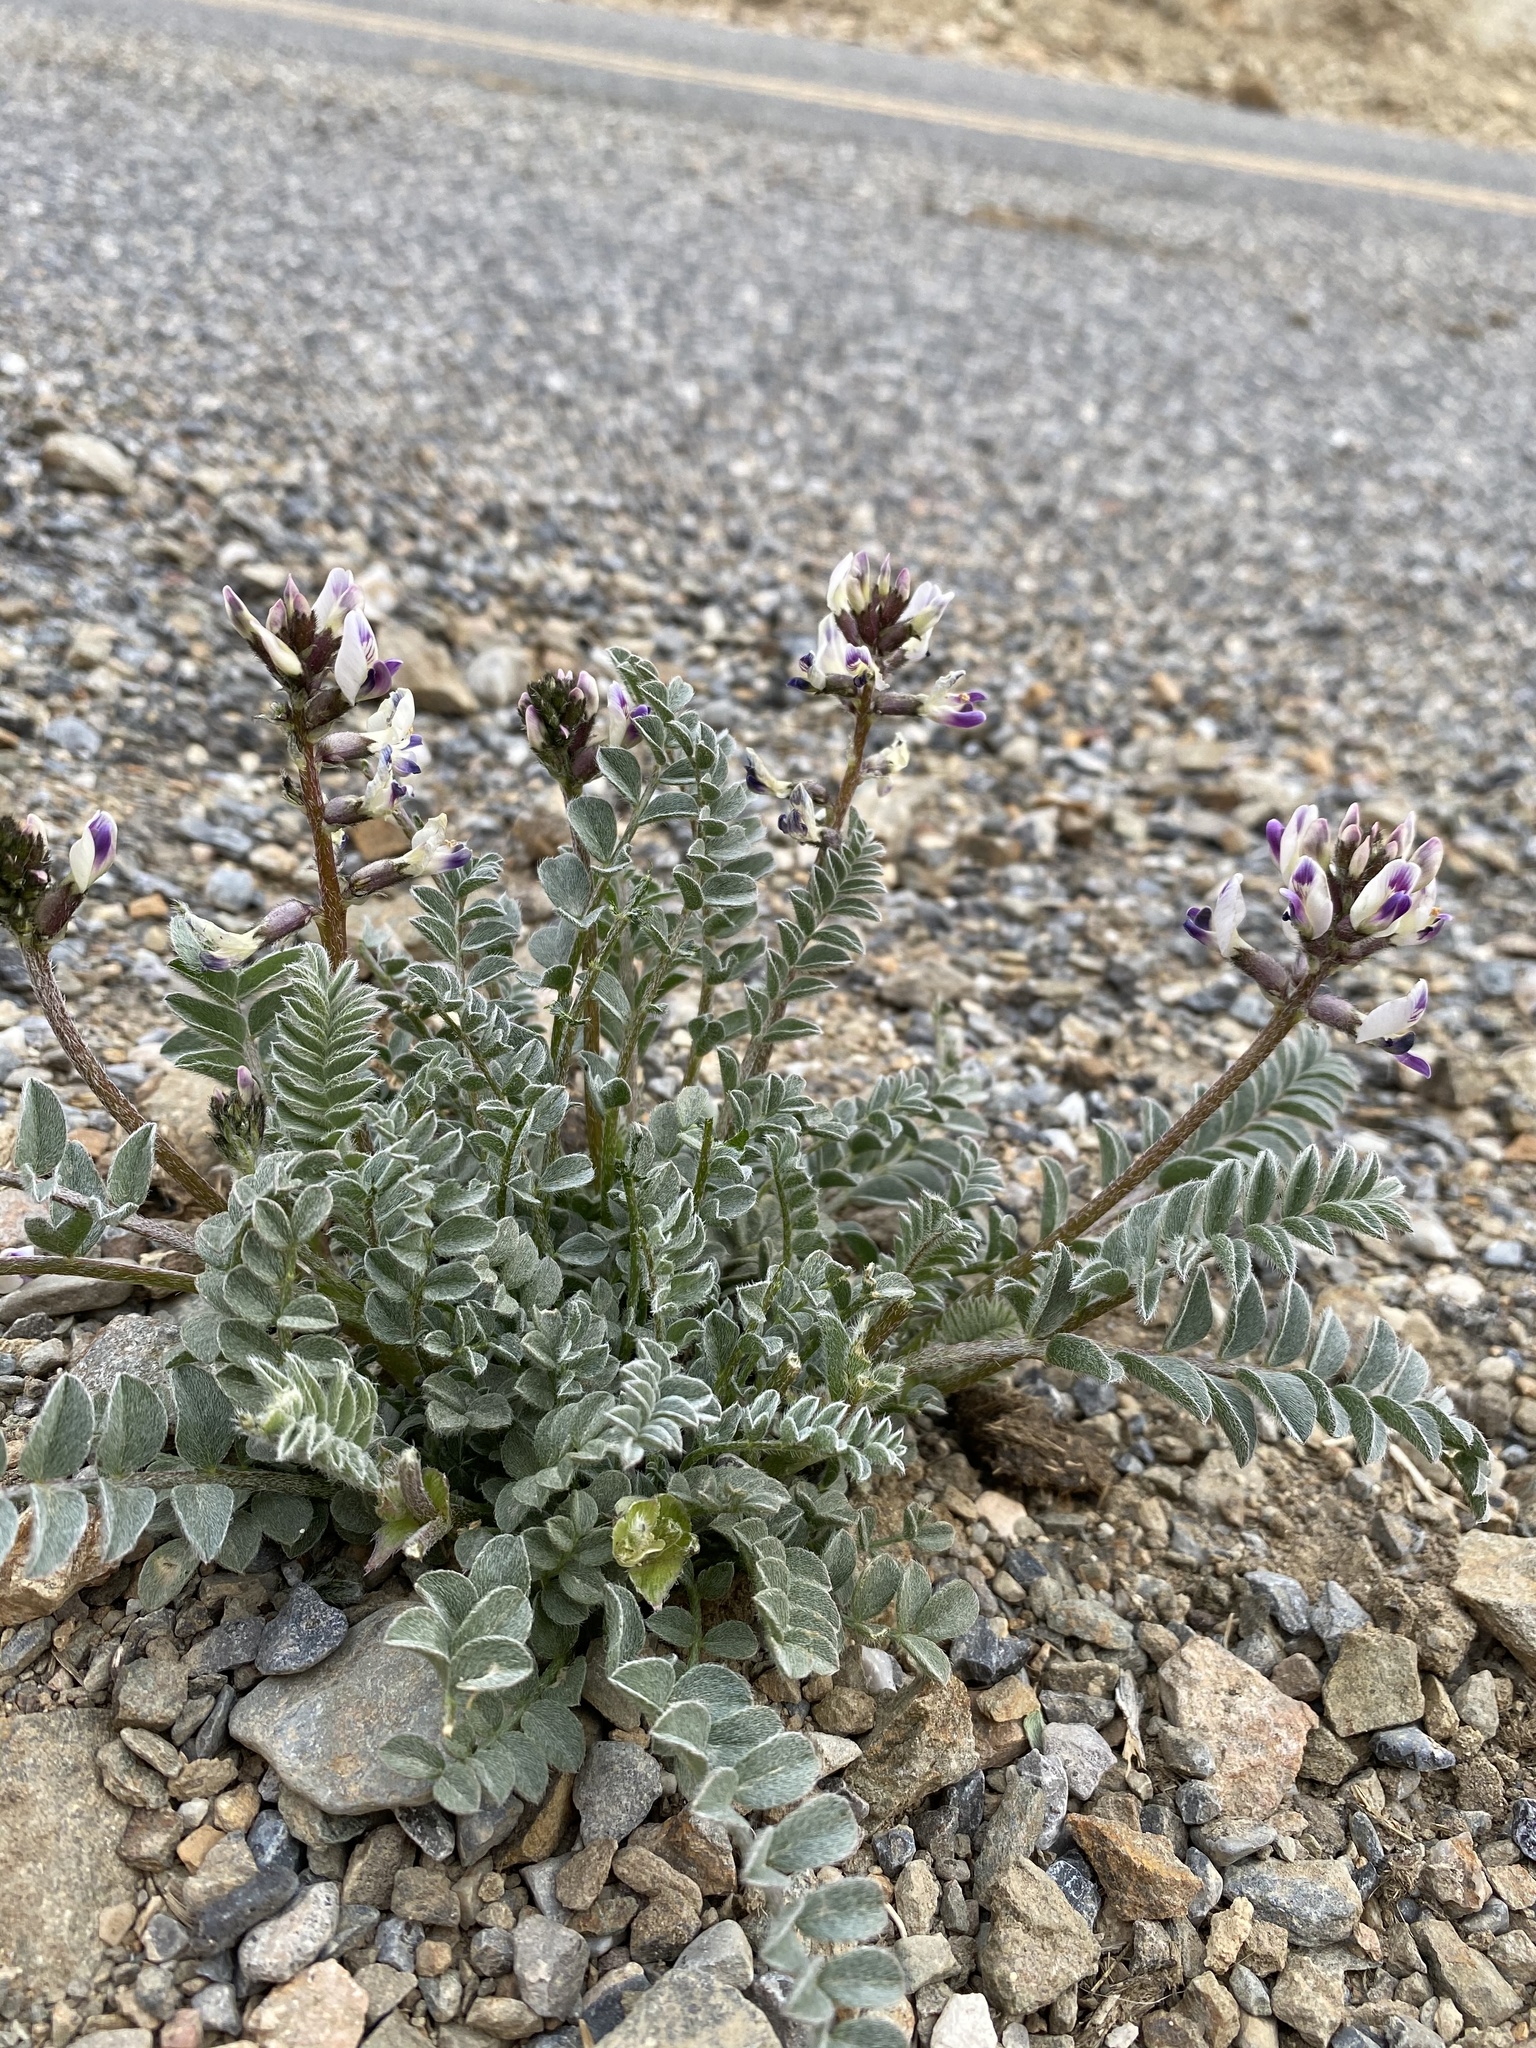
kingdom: Plantae
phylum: Tracheophyta
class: Magnoliopsida
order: Fabales
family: Fabaceae
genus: Astragalus
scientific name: Astragalus layneae
